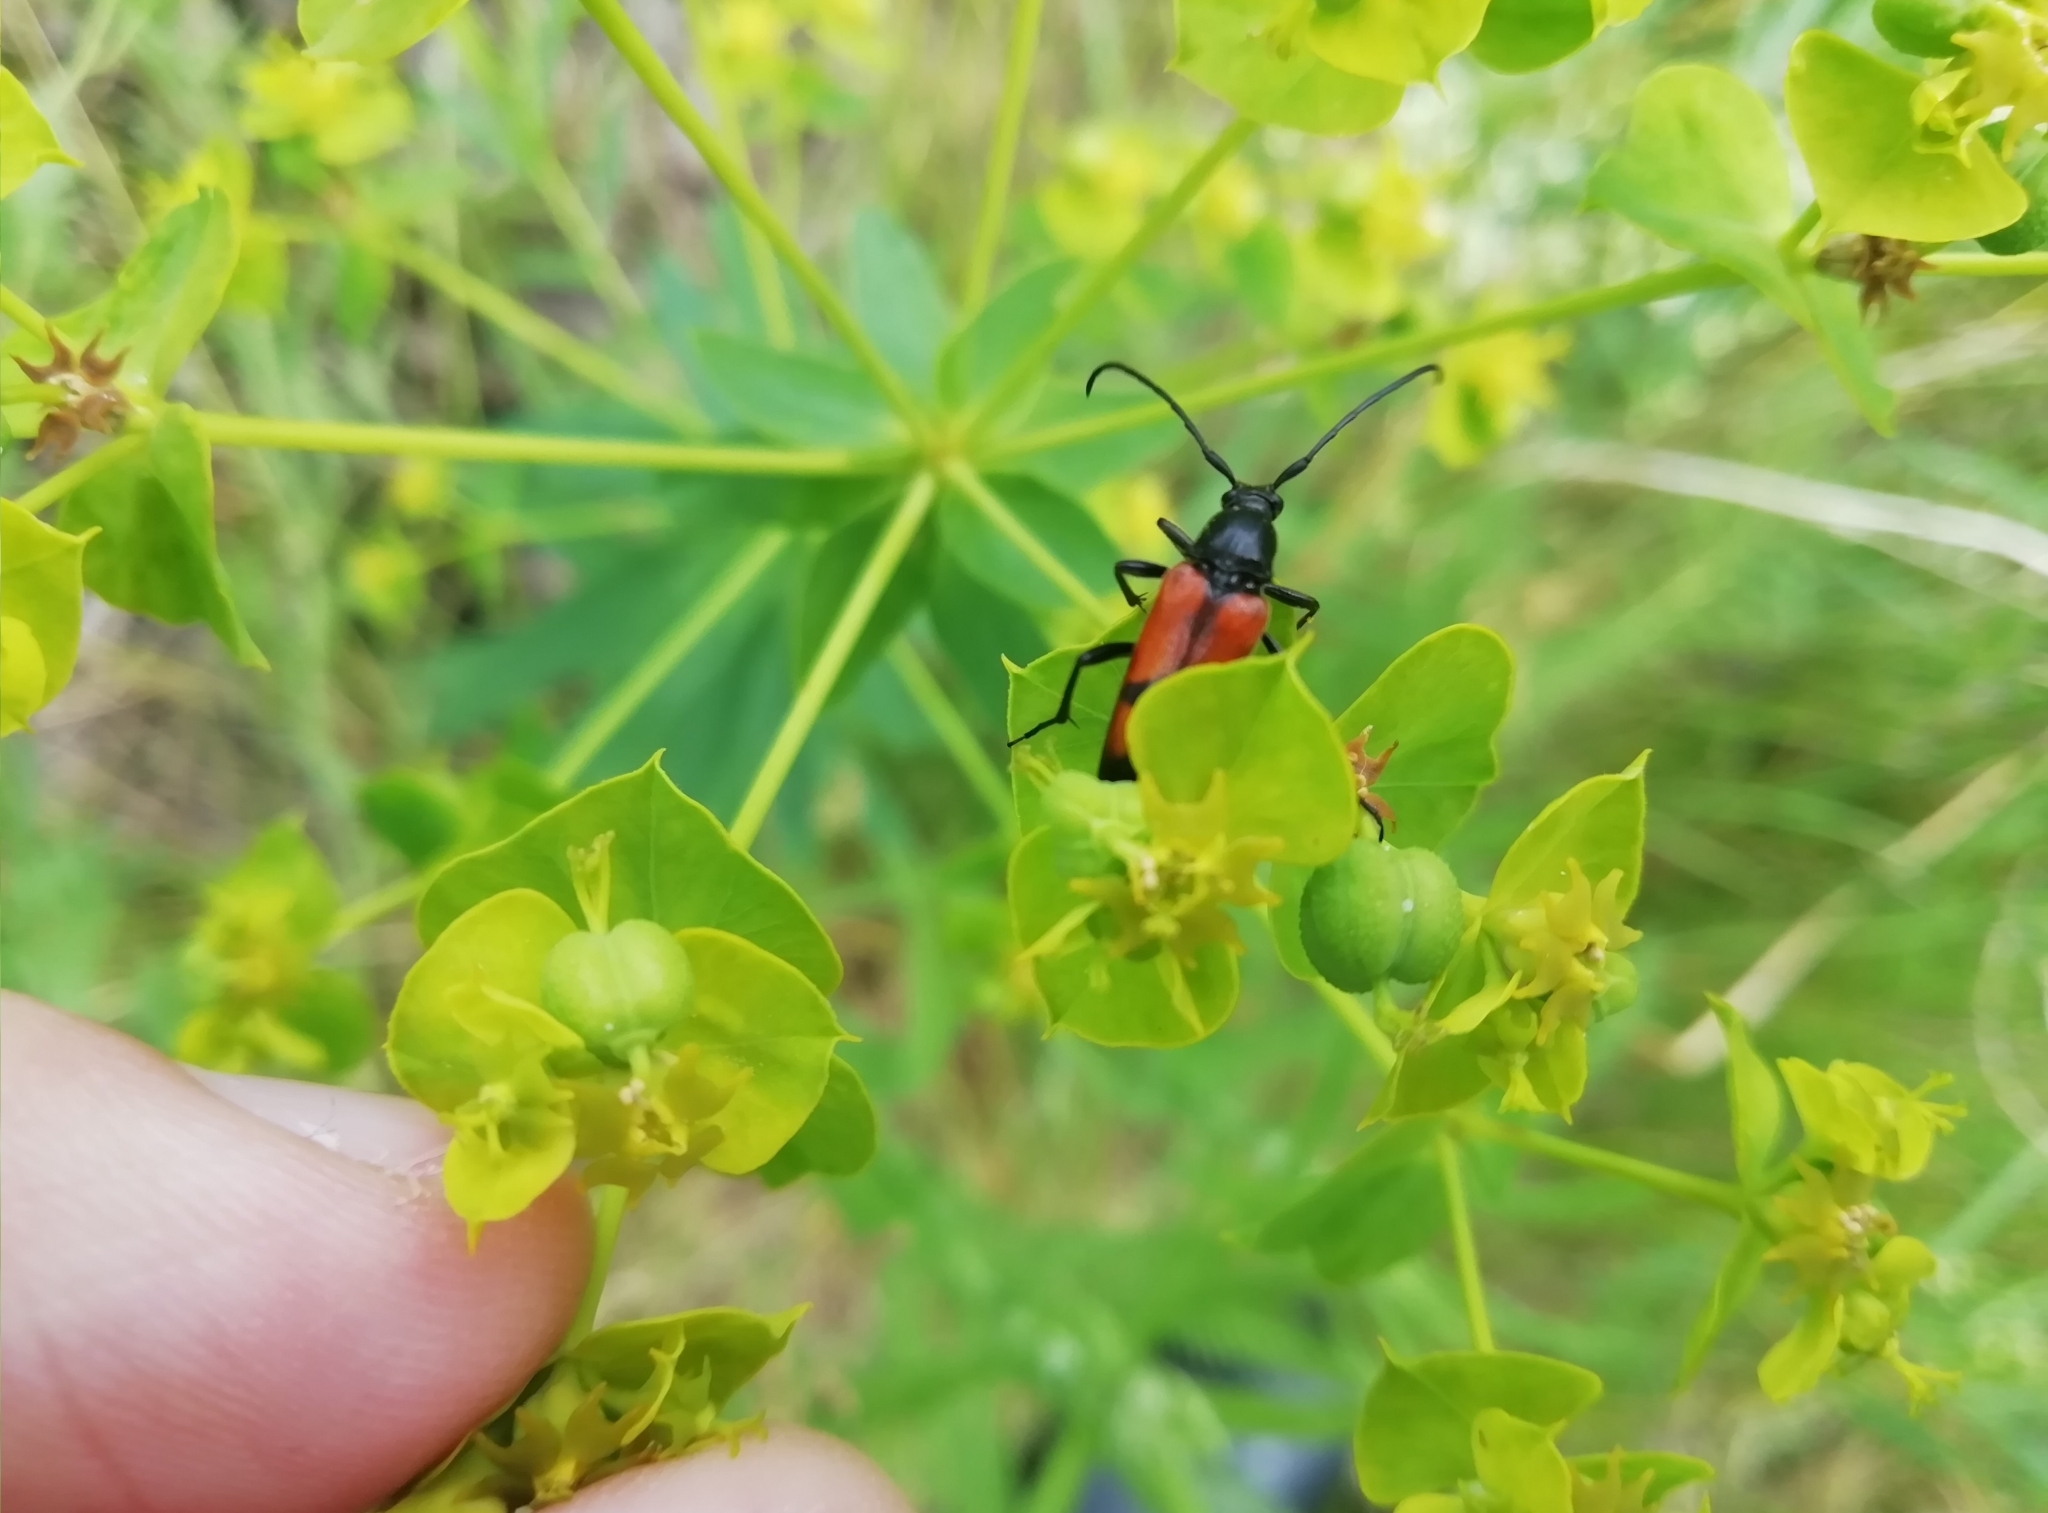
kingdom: Animalia
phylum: Arthropoda
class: Insecta
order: Coleoptera
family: Cerambycidae
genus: Stenurella
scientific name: Stenurella bifasciata
